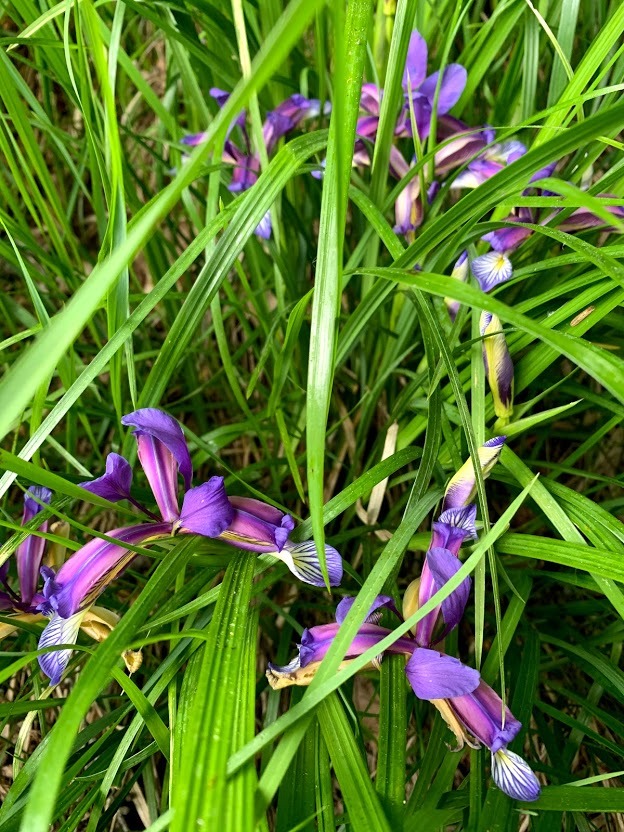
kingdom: Plantae
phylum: Tracheophyta
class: Liliopsida
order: Asparagales
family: Iridaceae
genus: Iris
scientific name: Iris graminea
